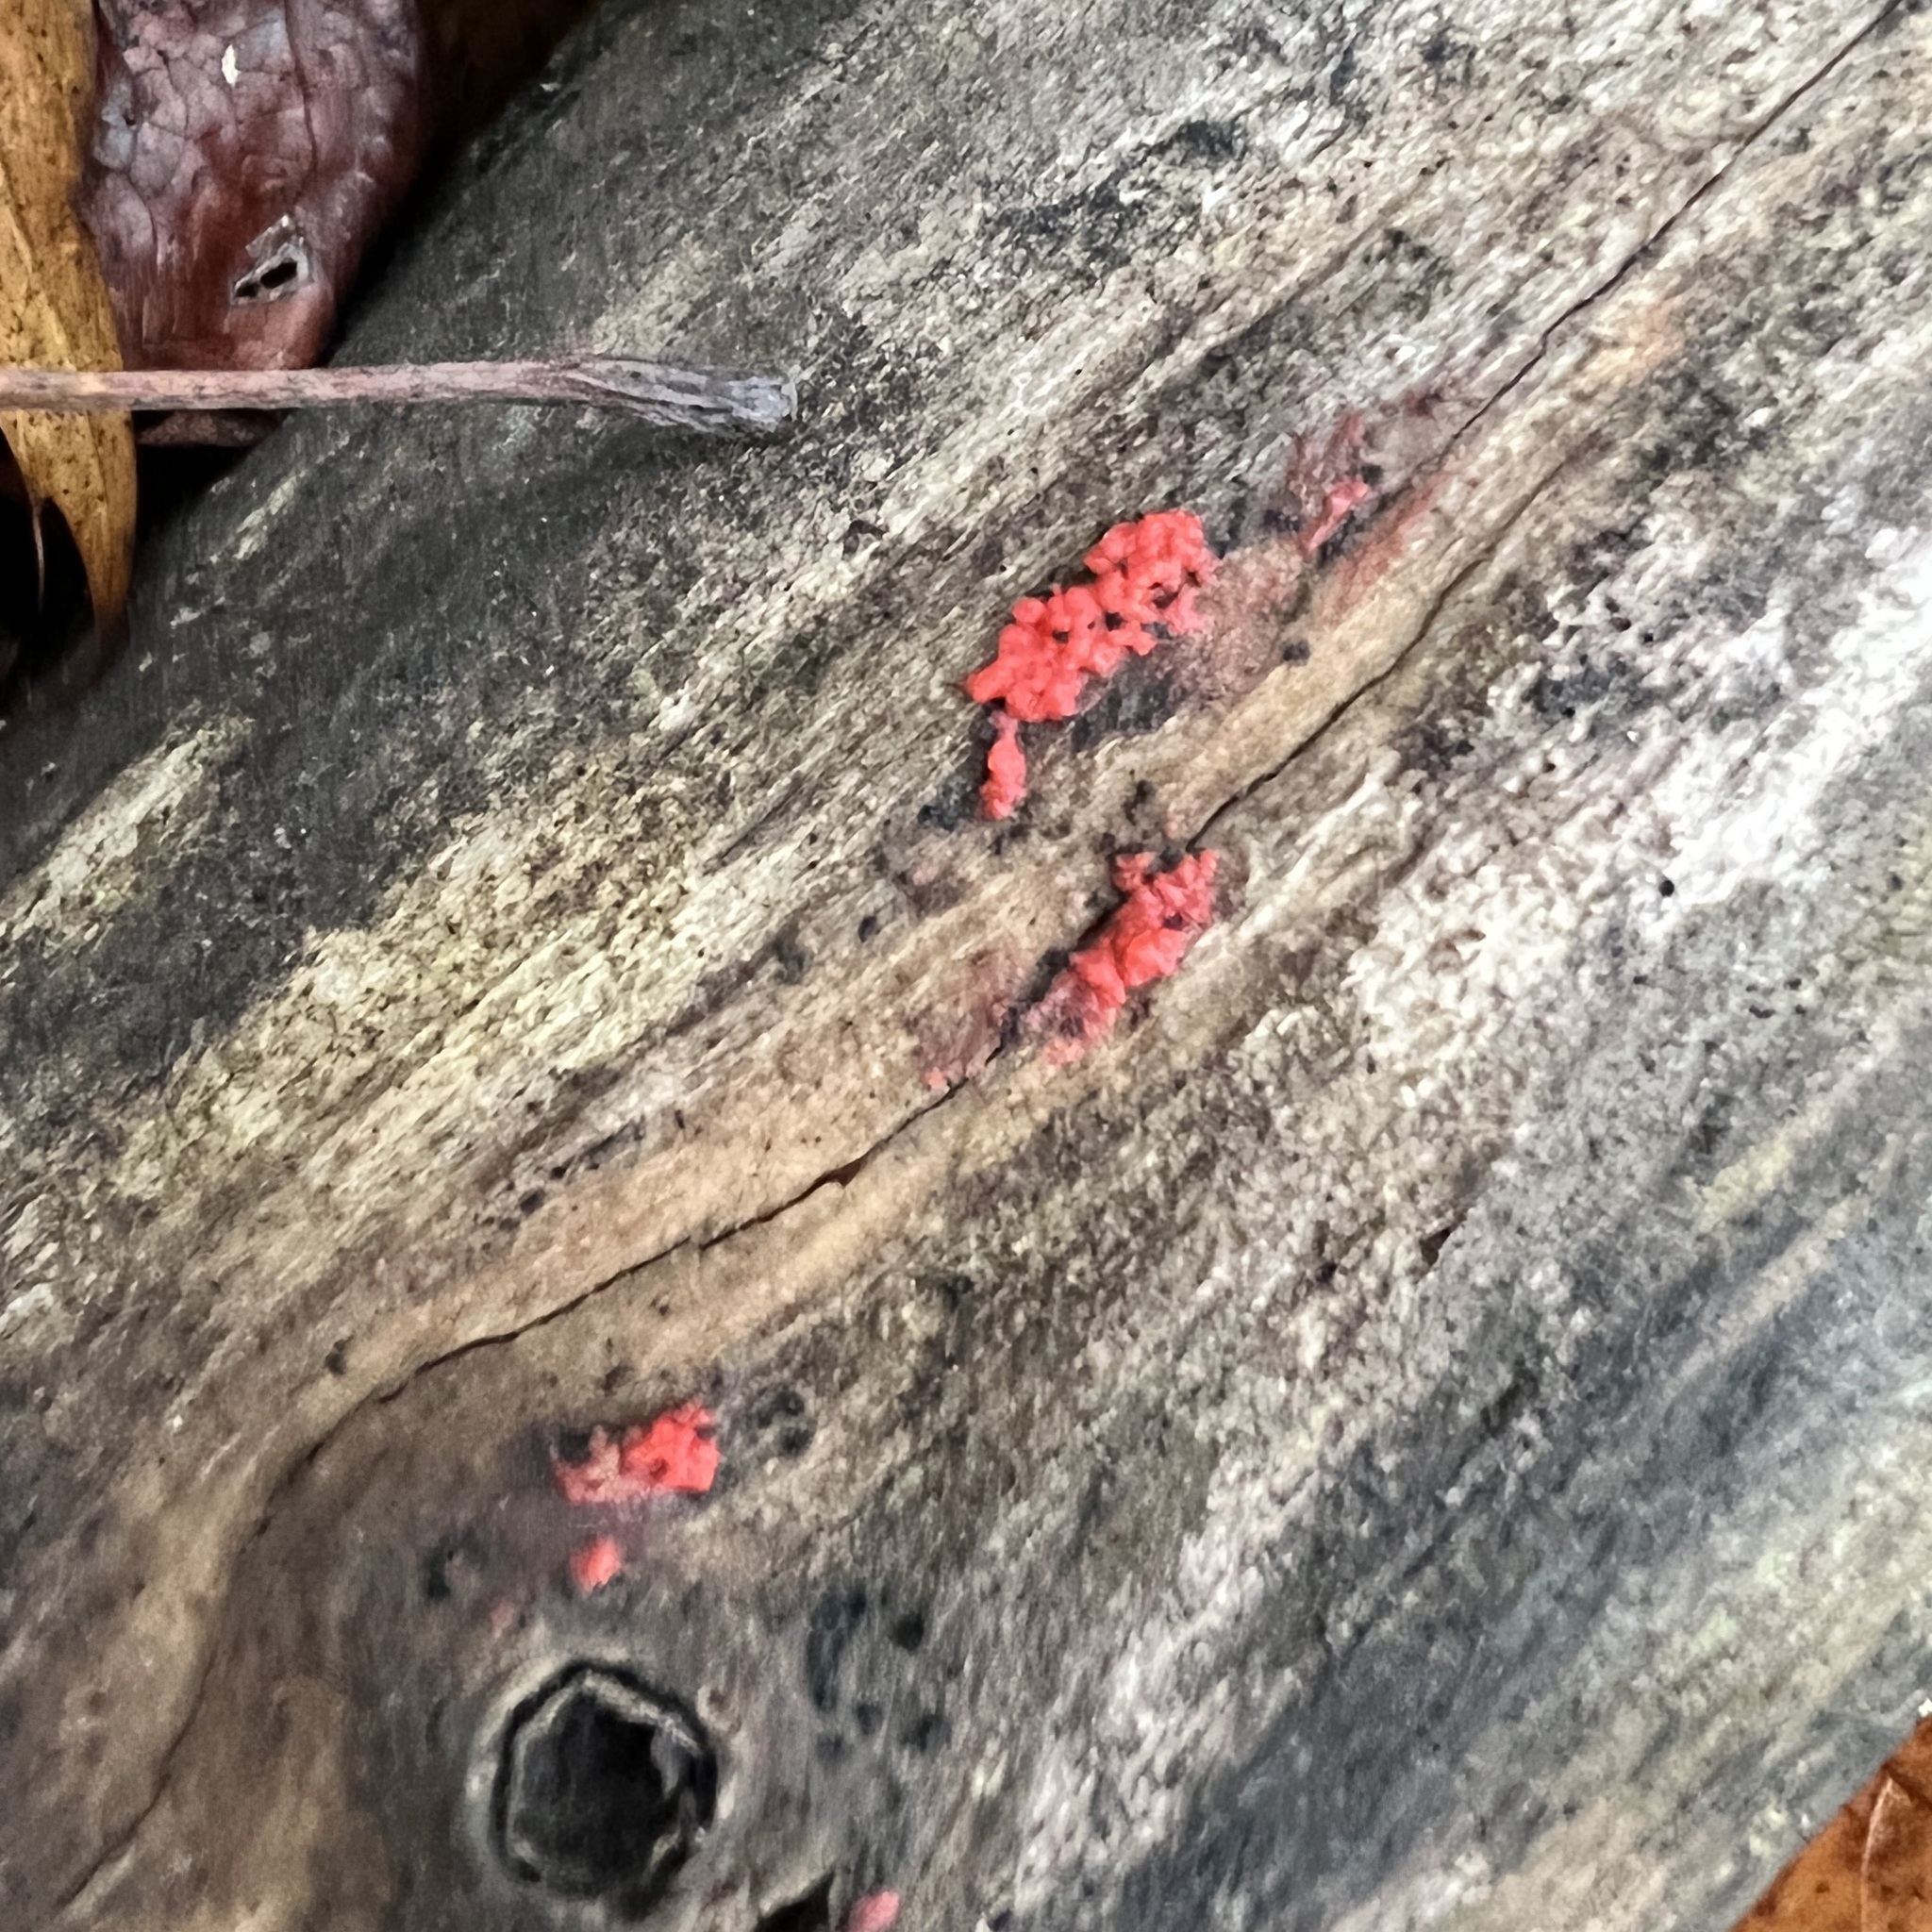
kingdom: Fungi
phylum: Basidiomycota
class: Agaricomycetes
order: Cantharellales
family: Tulasnellaceae
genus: Tulasnella
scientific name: Tulasnella aurantiaca
